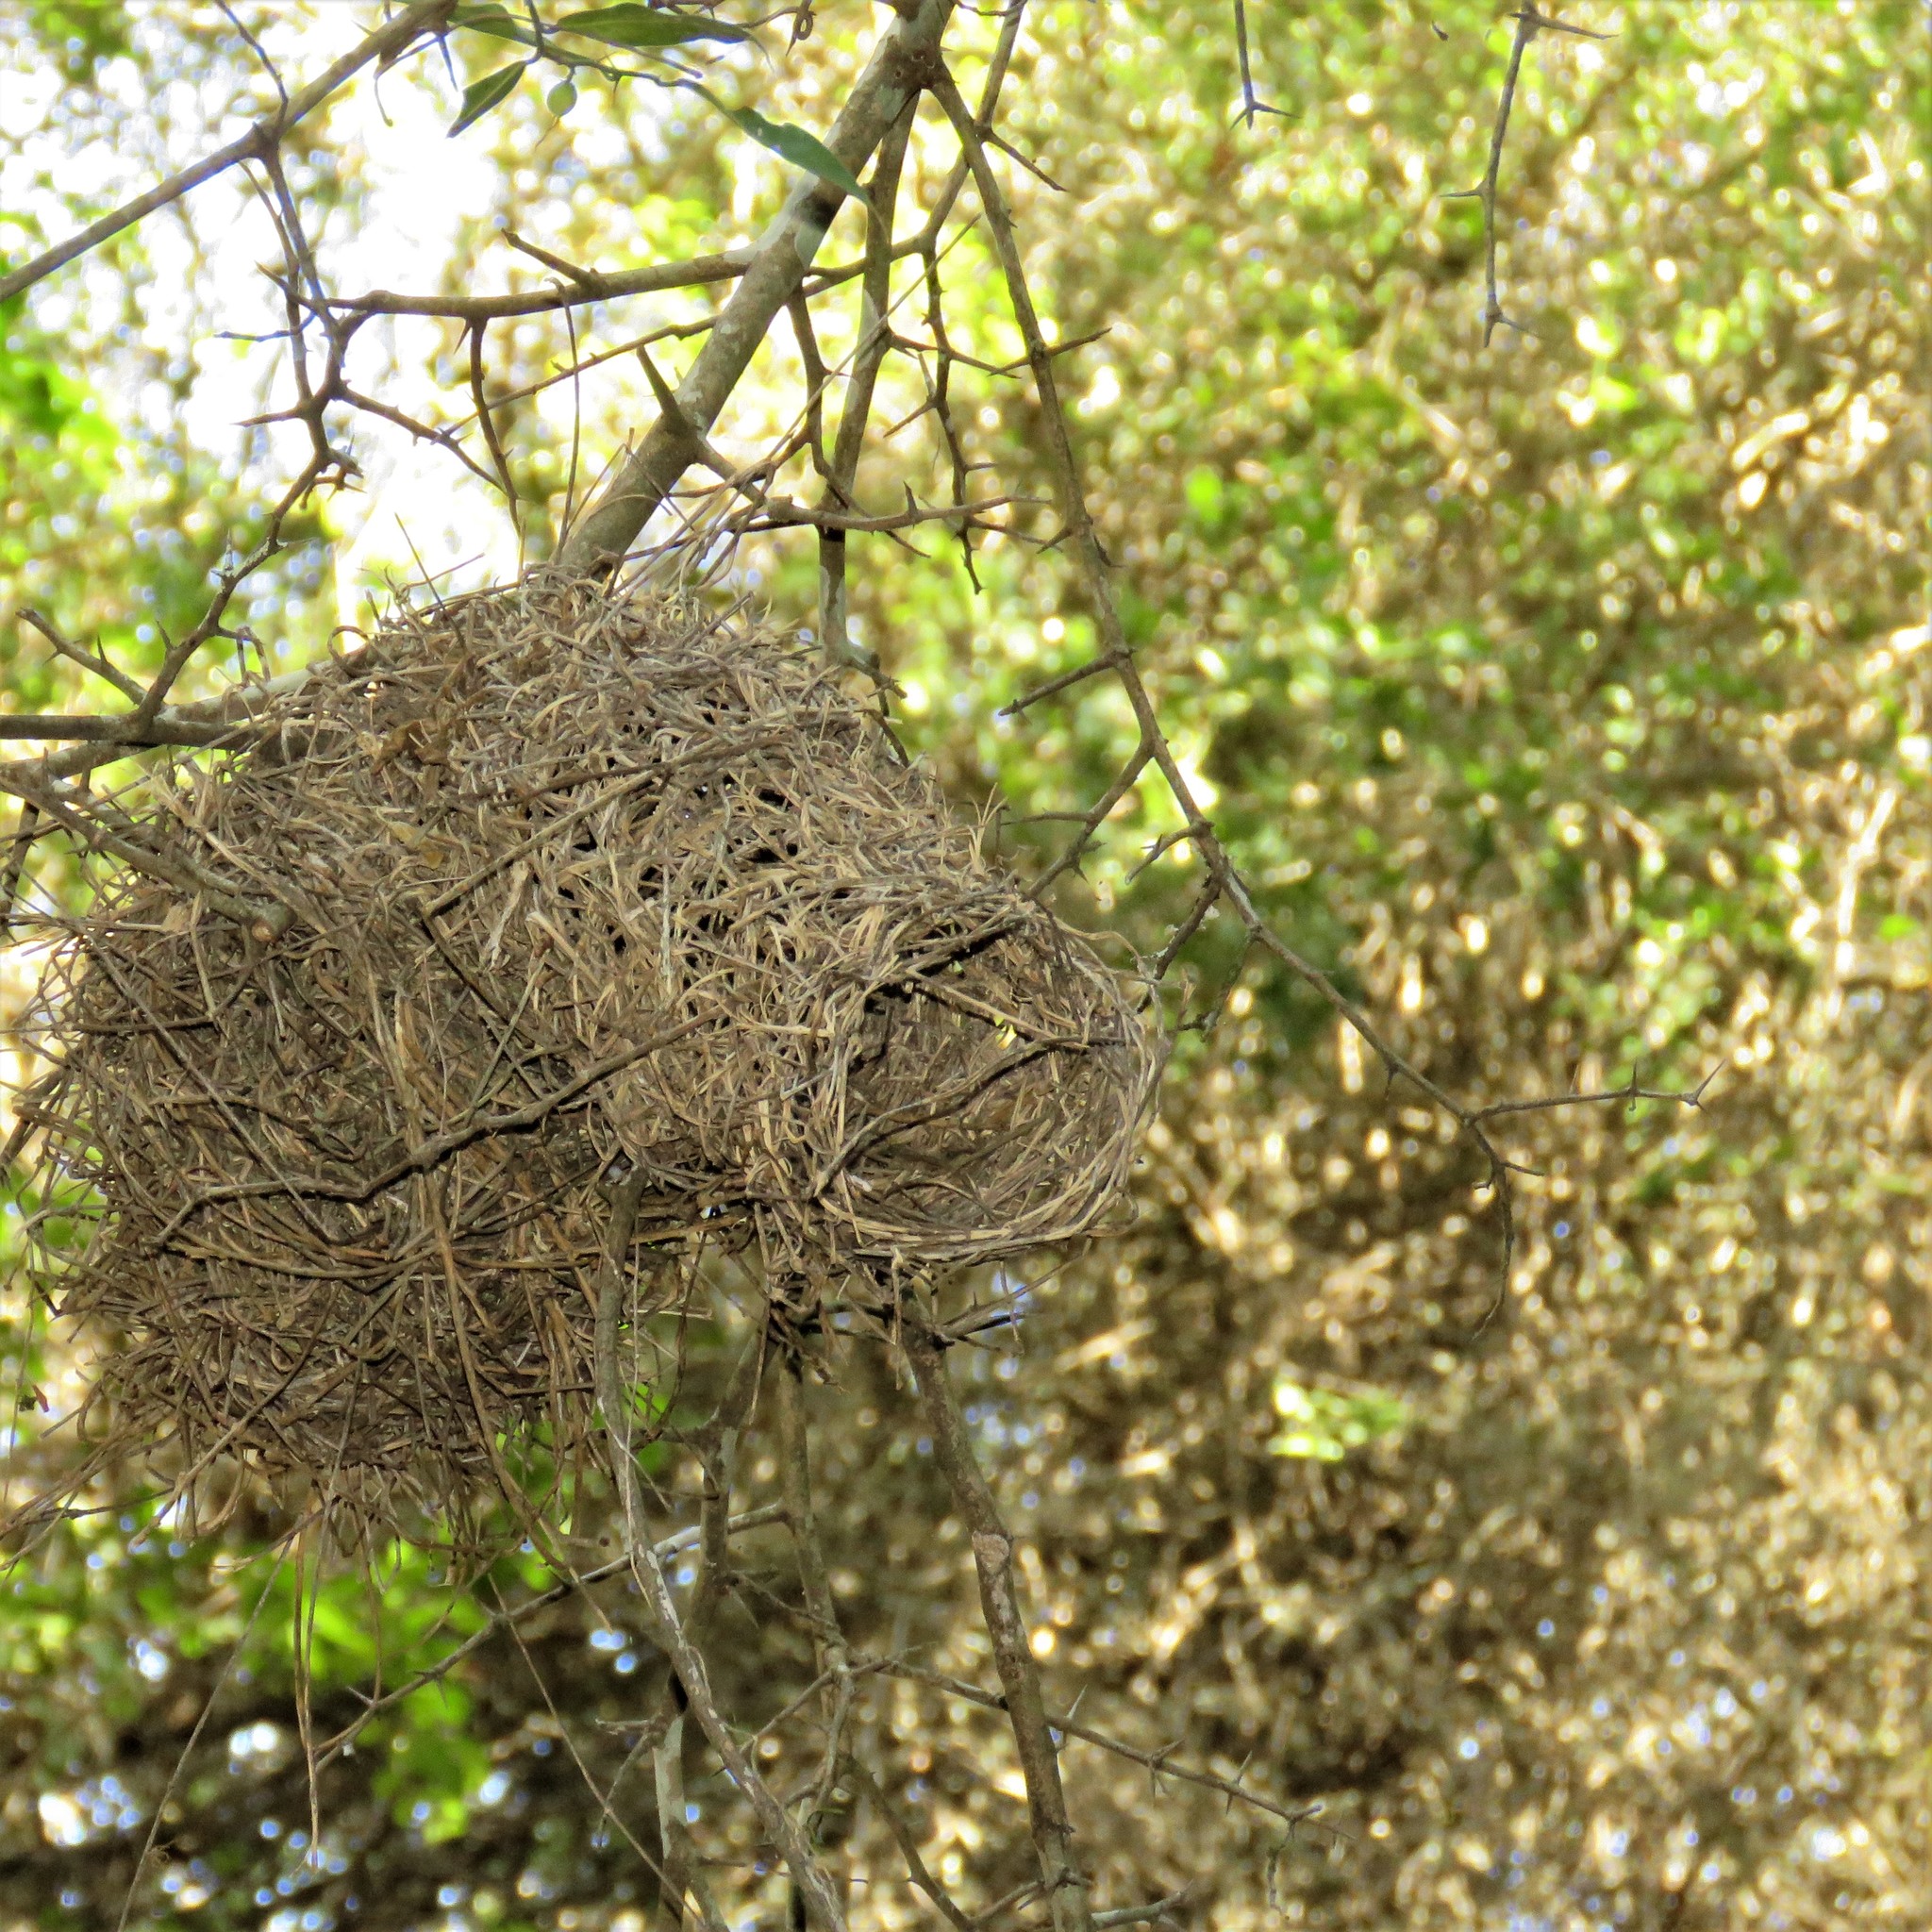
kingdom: Animalia
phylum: Chordata
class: Aves
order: Passeriformes
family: Ploceidae
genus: Ploceus
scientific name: Ploceus bicolor
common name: Dark-backed weaver
